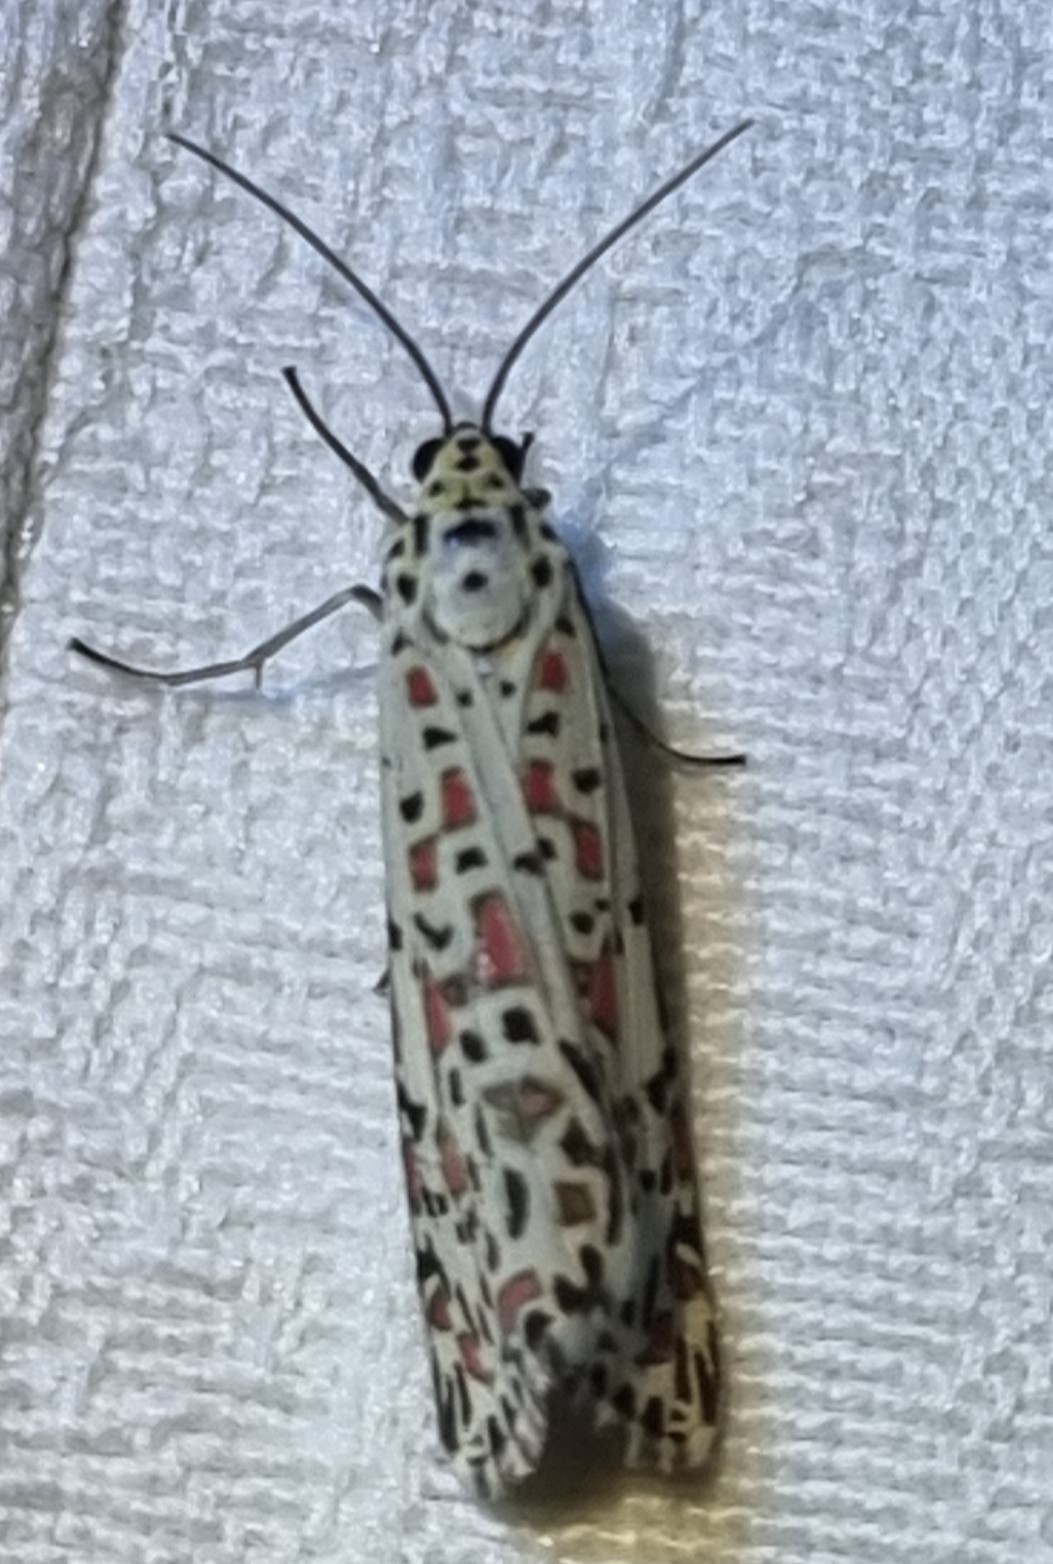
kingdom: Animalia
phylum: Arthropoda
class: Insecta
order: Lepidoptera
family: Erebidae
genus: Utetheisa
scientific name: Utetheisa pulchelloides
